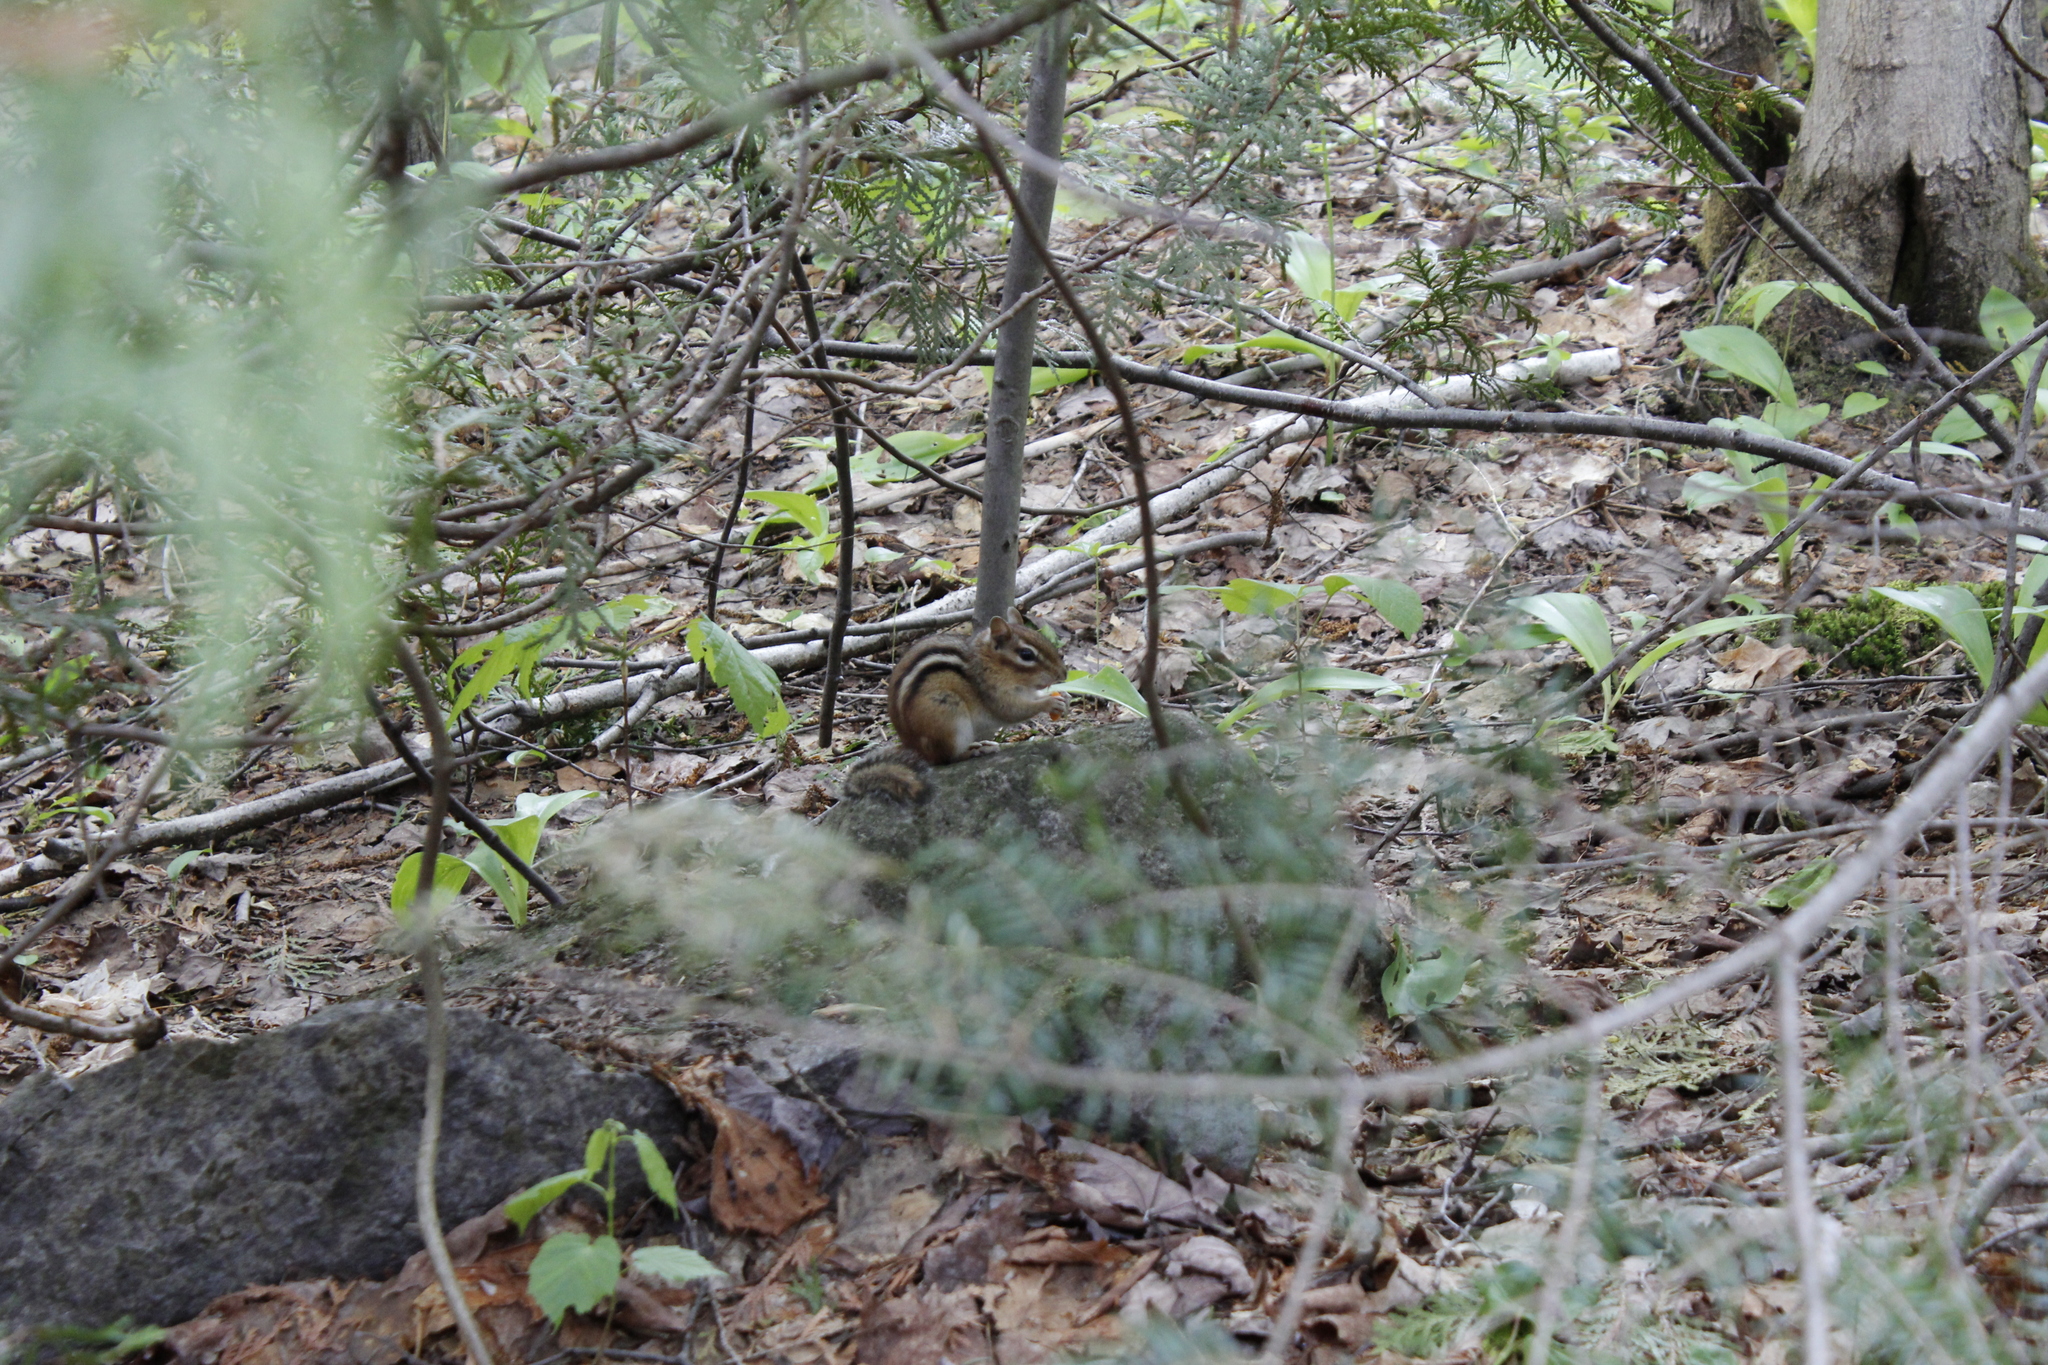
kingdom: Animalia
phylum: Chordata
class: Mammalia
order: Rodentia
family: Sciuridae
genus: Tamias
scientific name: Tamias striatus
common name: Eastern chipmunk
